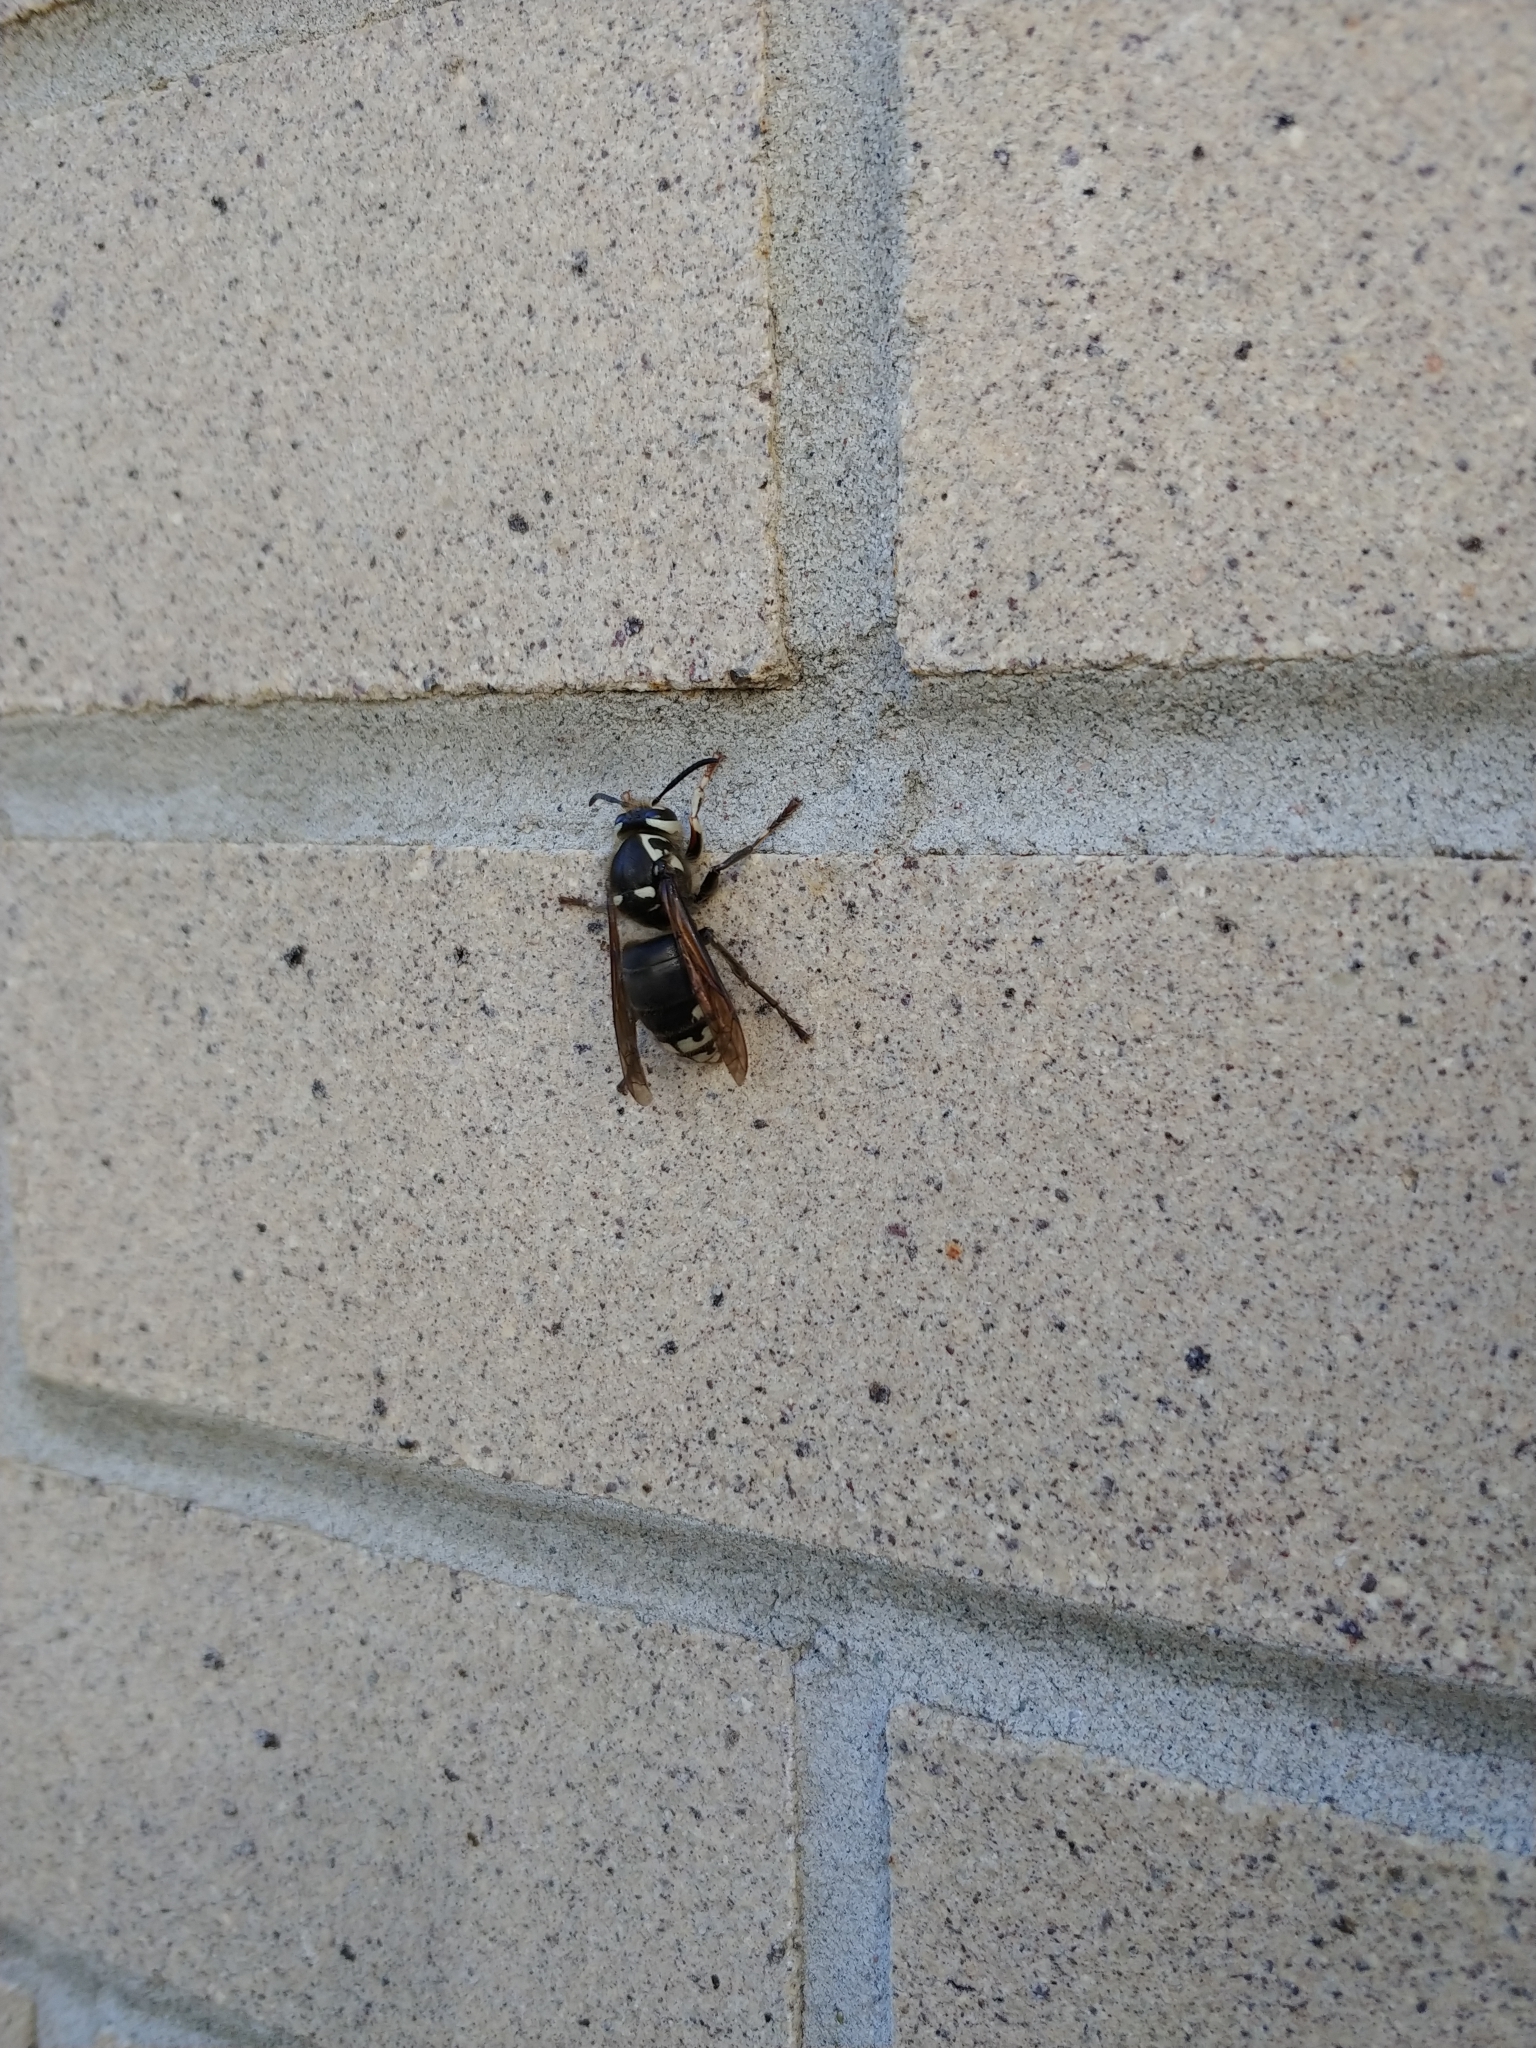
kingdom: Animalia
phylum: Arthropoda
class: Insecta
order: Hymenoptera
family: Vespidae
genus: Dolichovespula
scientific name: Dolichovespula maculata
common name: Bald-faced hornet
